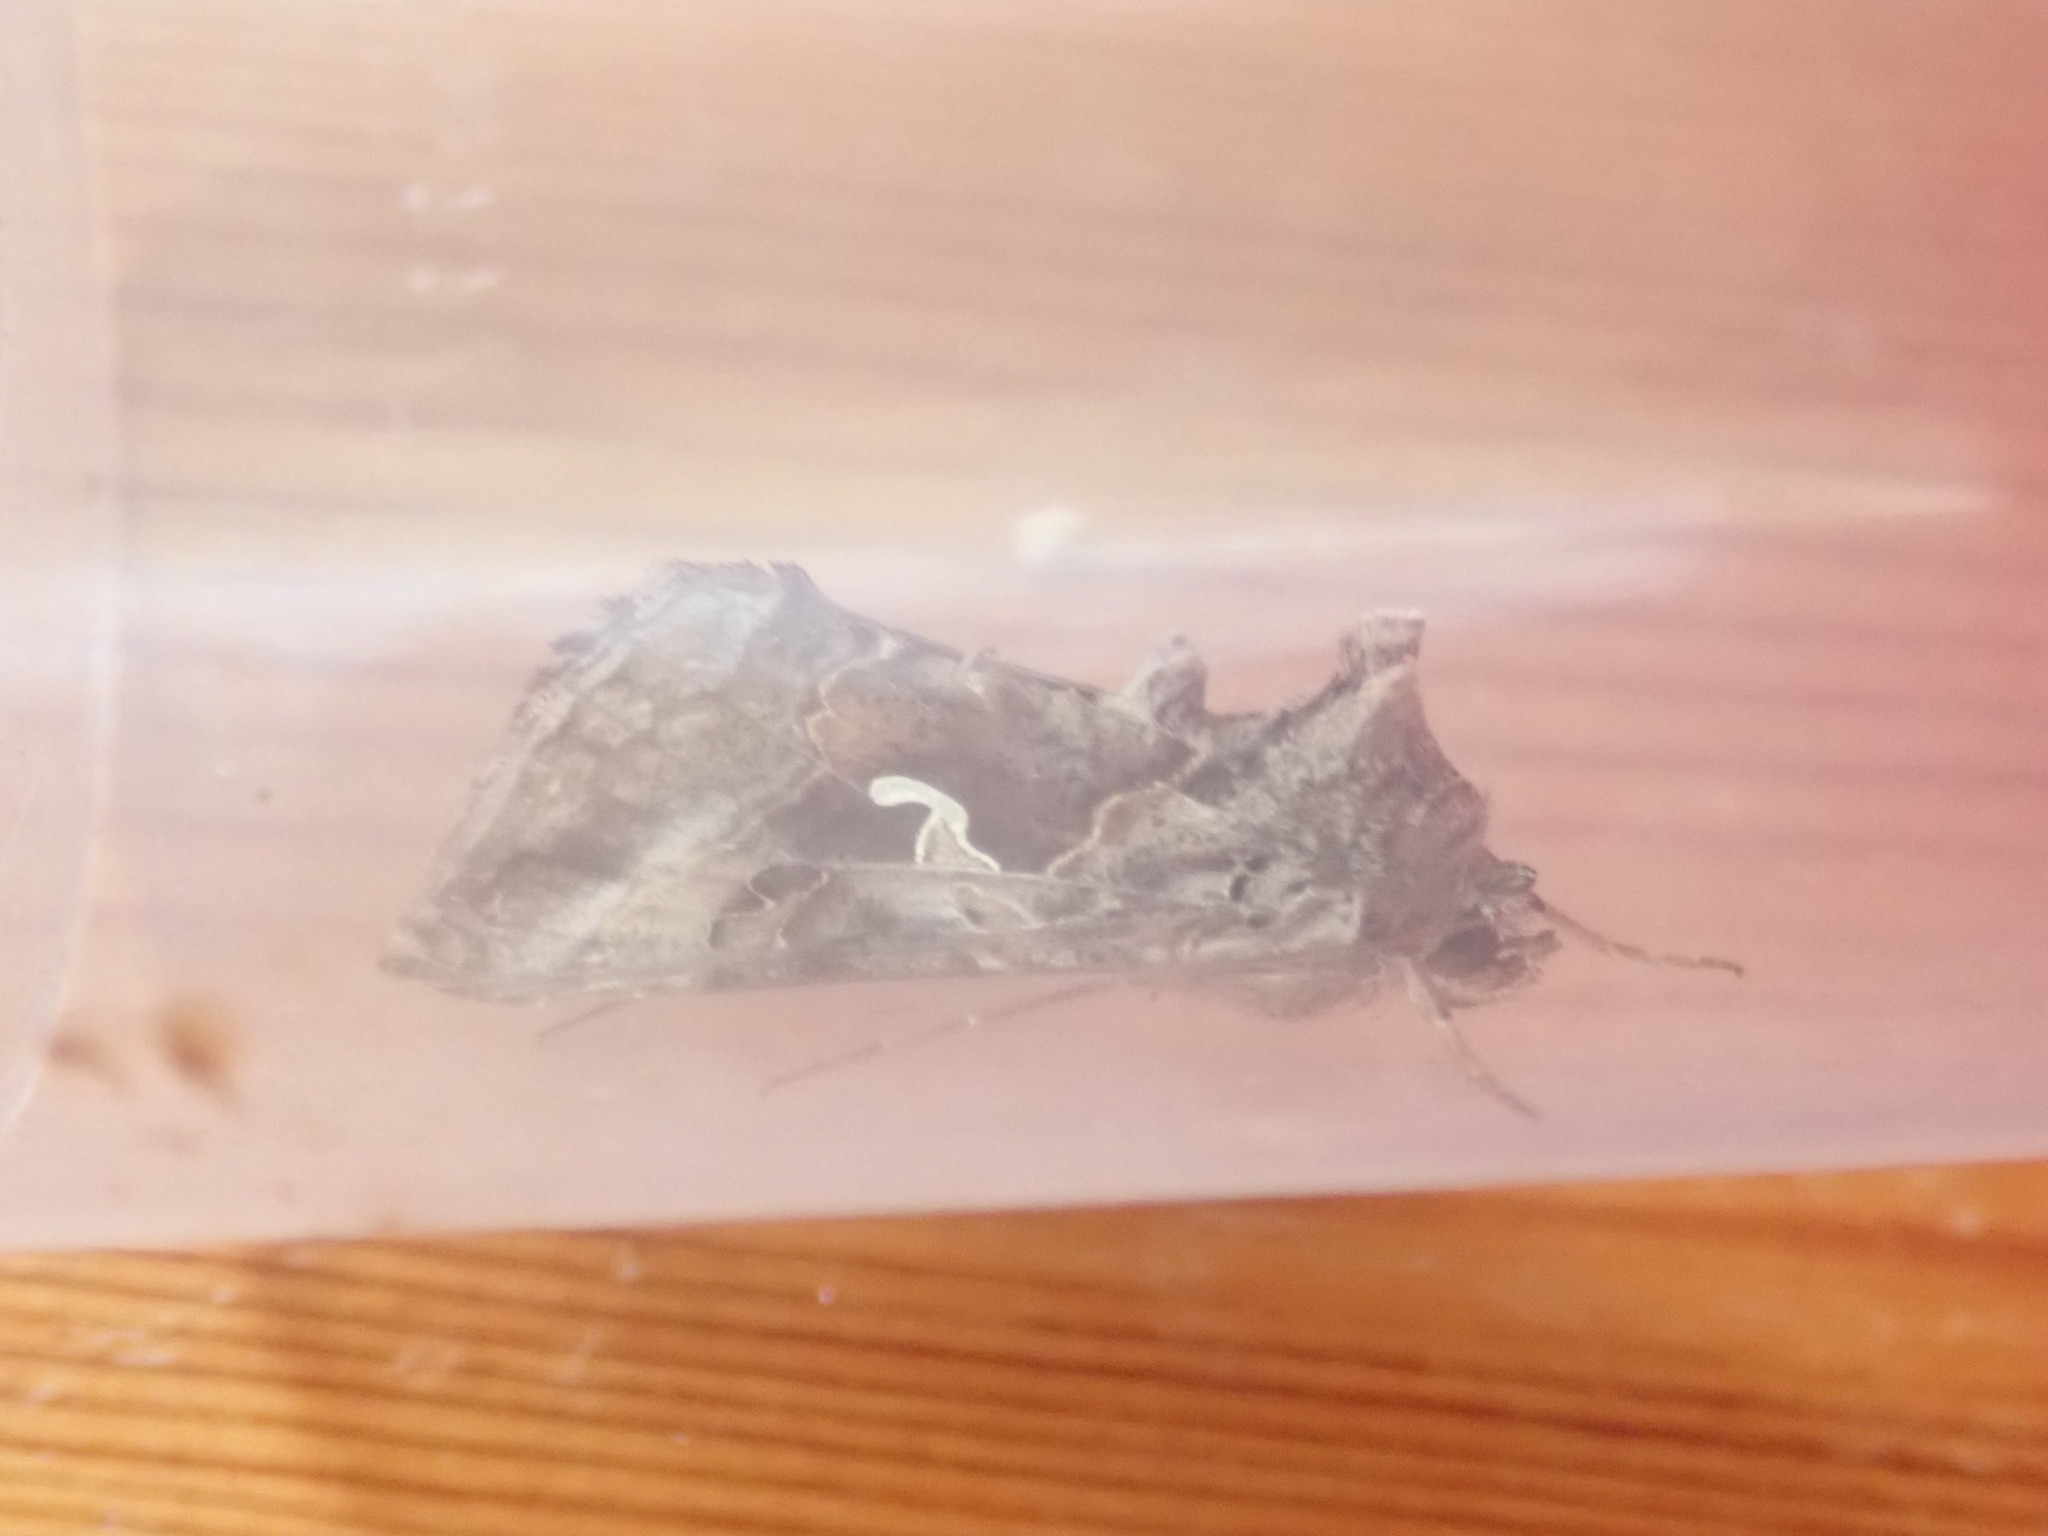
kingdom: Animalia
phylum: Arthropoda
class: Insecta
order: Lepidoptera
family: Noctuidae
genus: Autographa
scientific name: Autographa gamma
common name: Silver y
